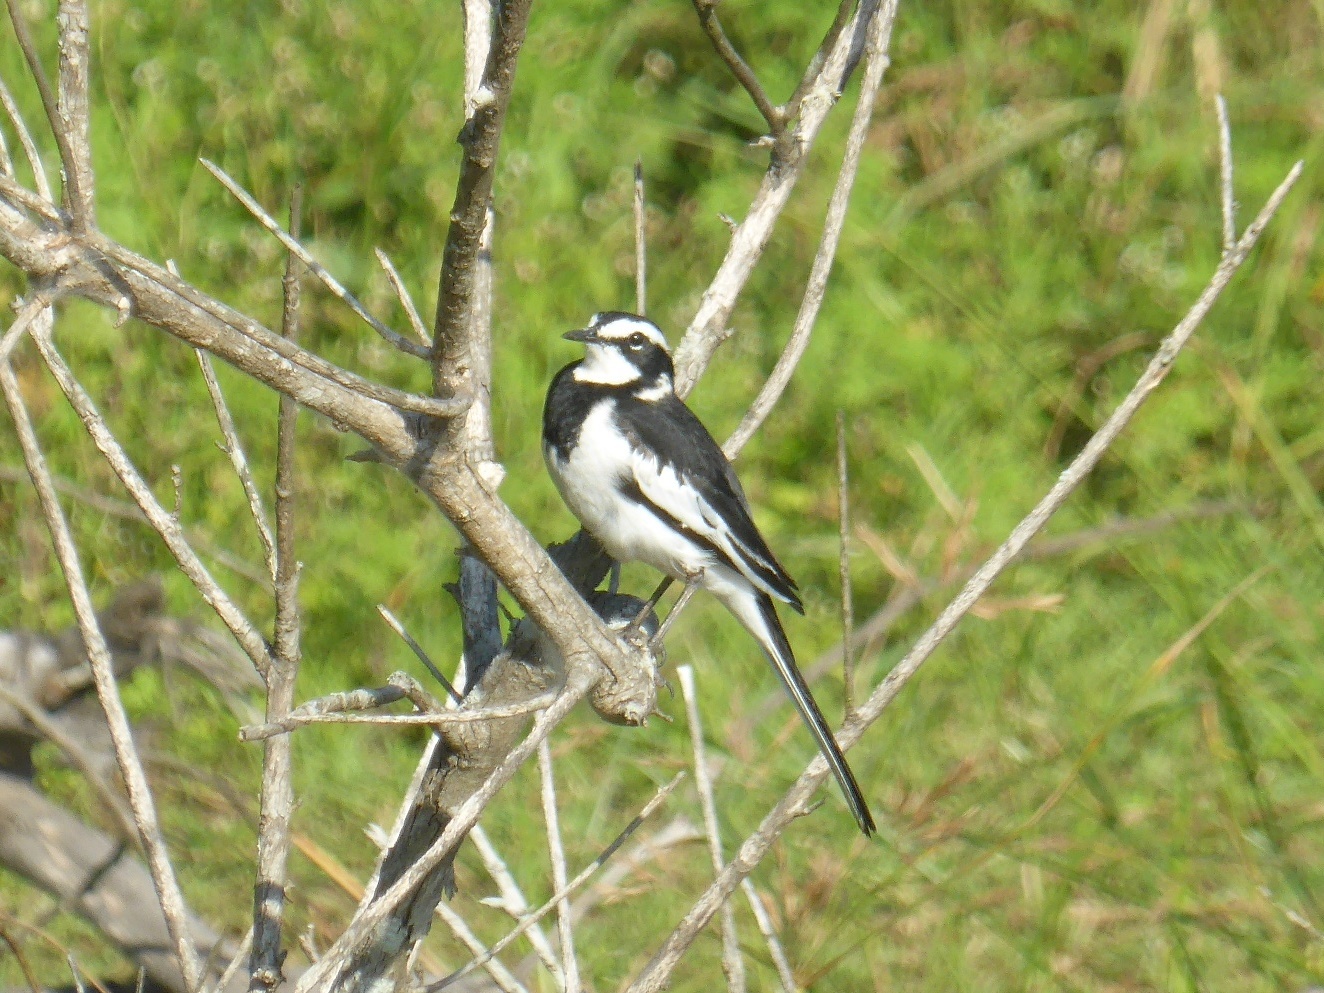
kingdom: Animalia
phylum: Chordata
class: Aves
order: Passeriformes
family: Motacillidae
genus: Motacilla
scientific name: Motacilla aguimp
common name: African pied wagtail
